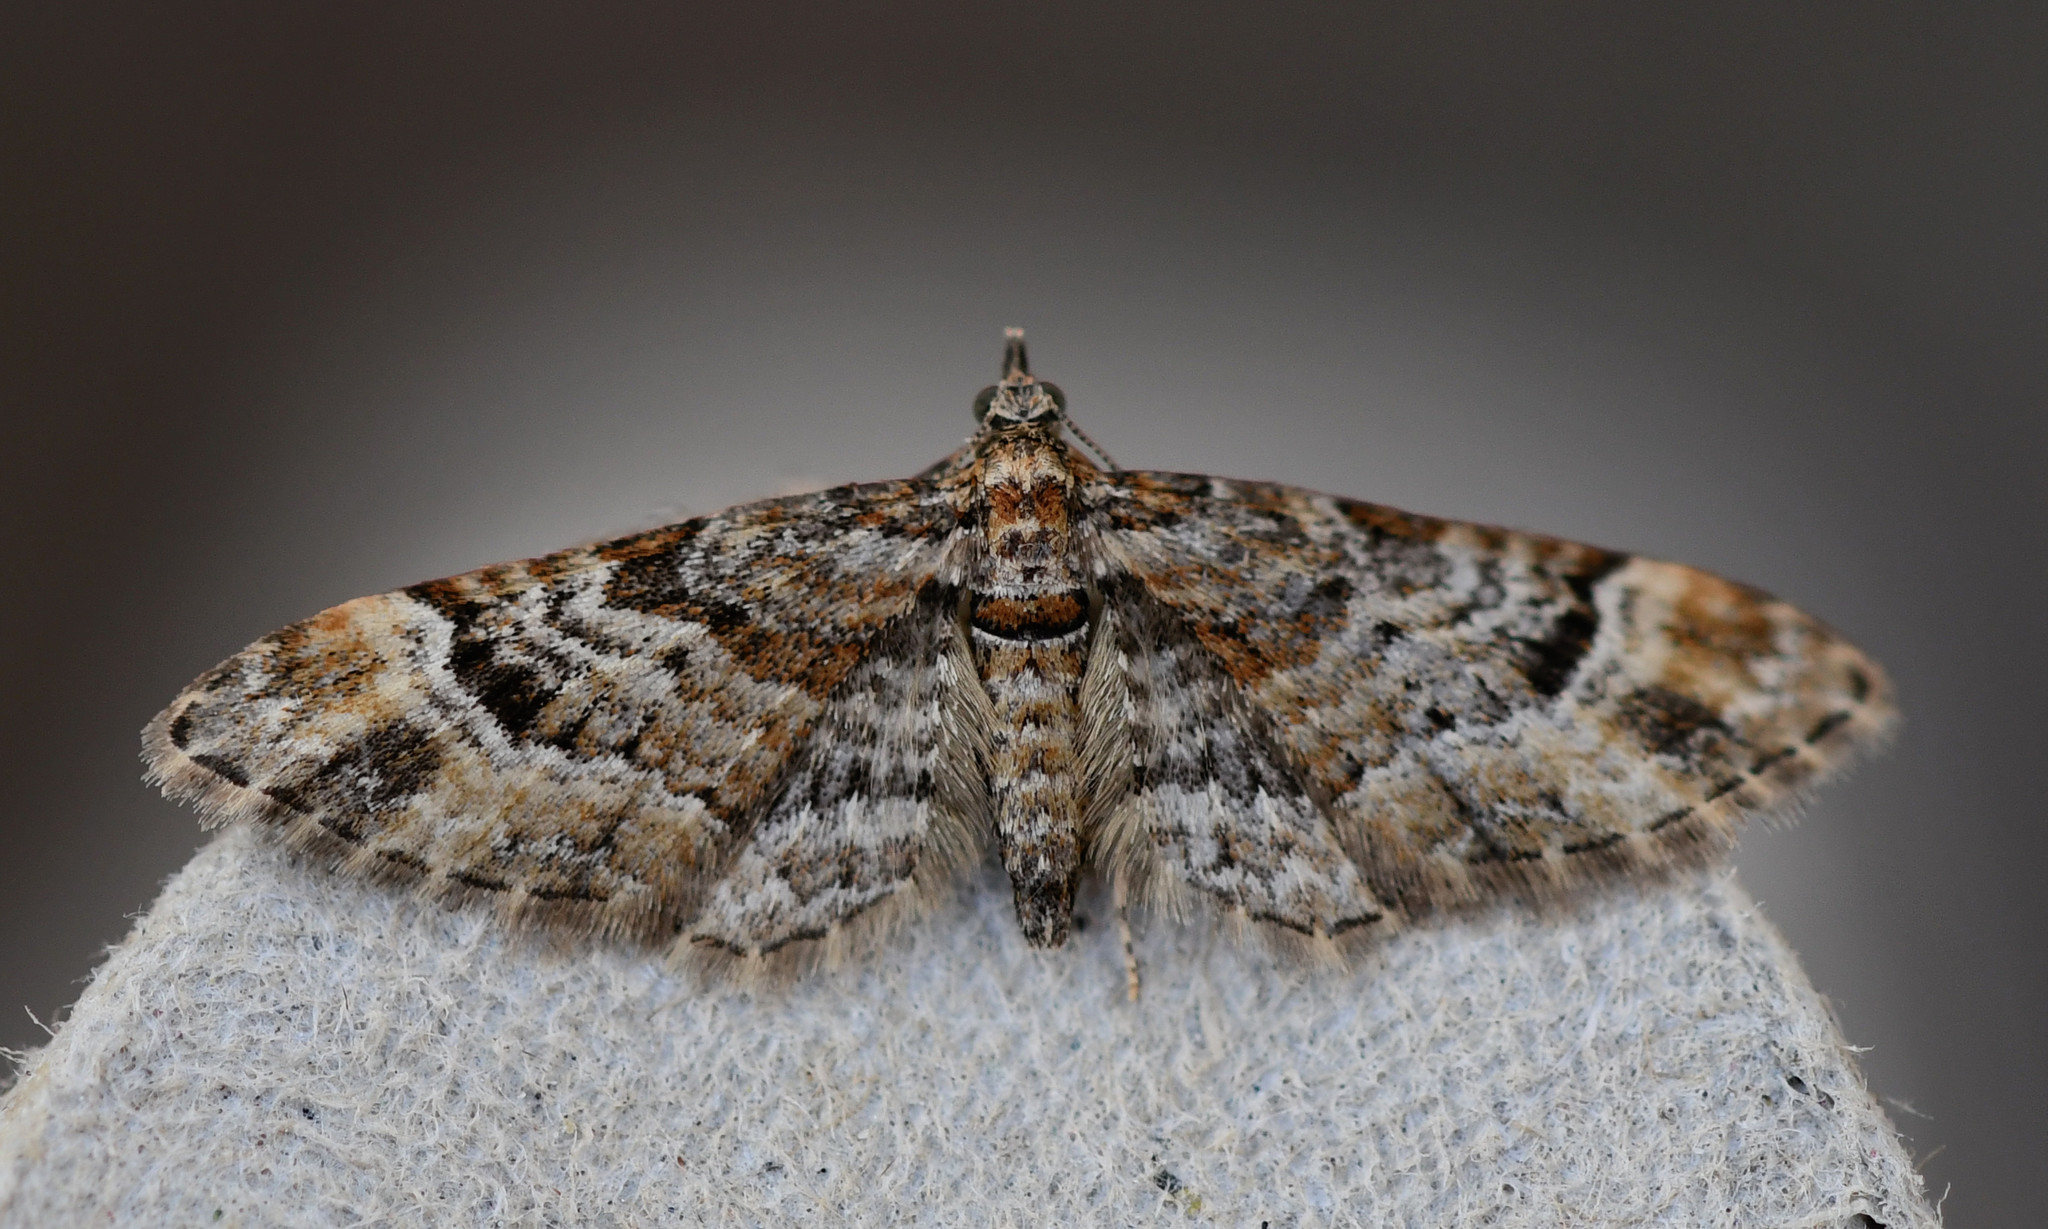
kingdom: Animalia
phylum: Arthropoda
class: Insecta
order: Lepidoptera
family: Geometridae
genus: Gymnoscelis
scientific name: Gymnoscelis rufifasciata
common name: Double-striped pug
